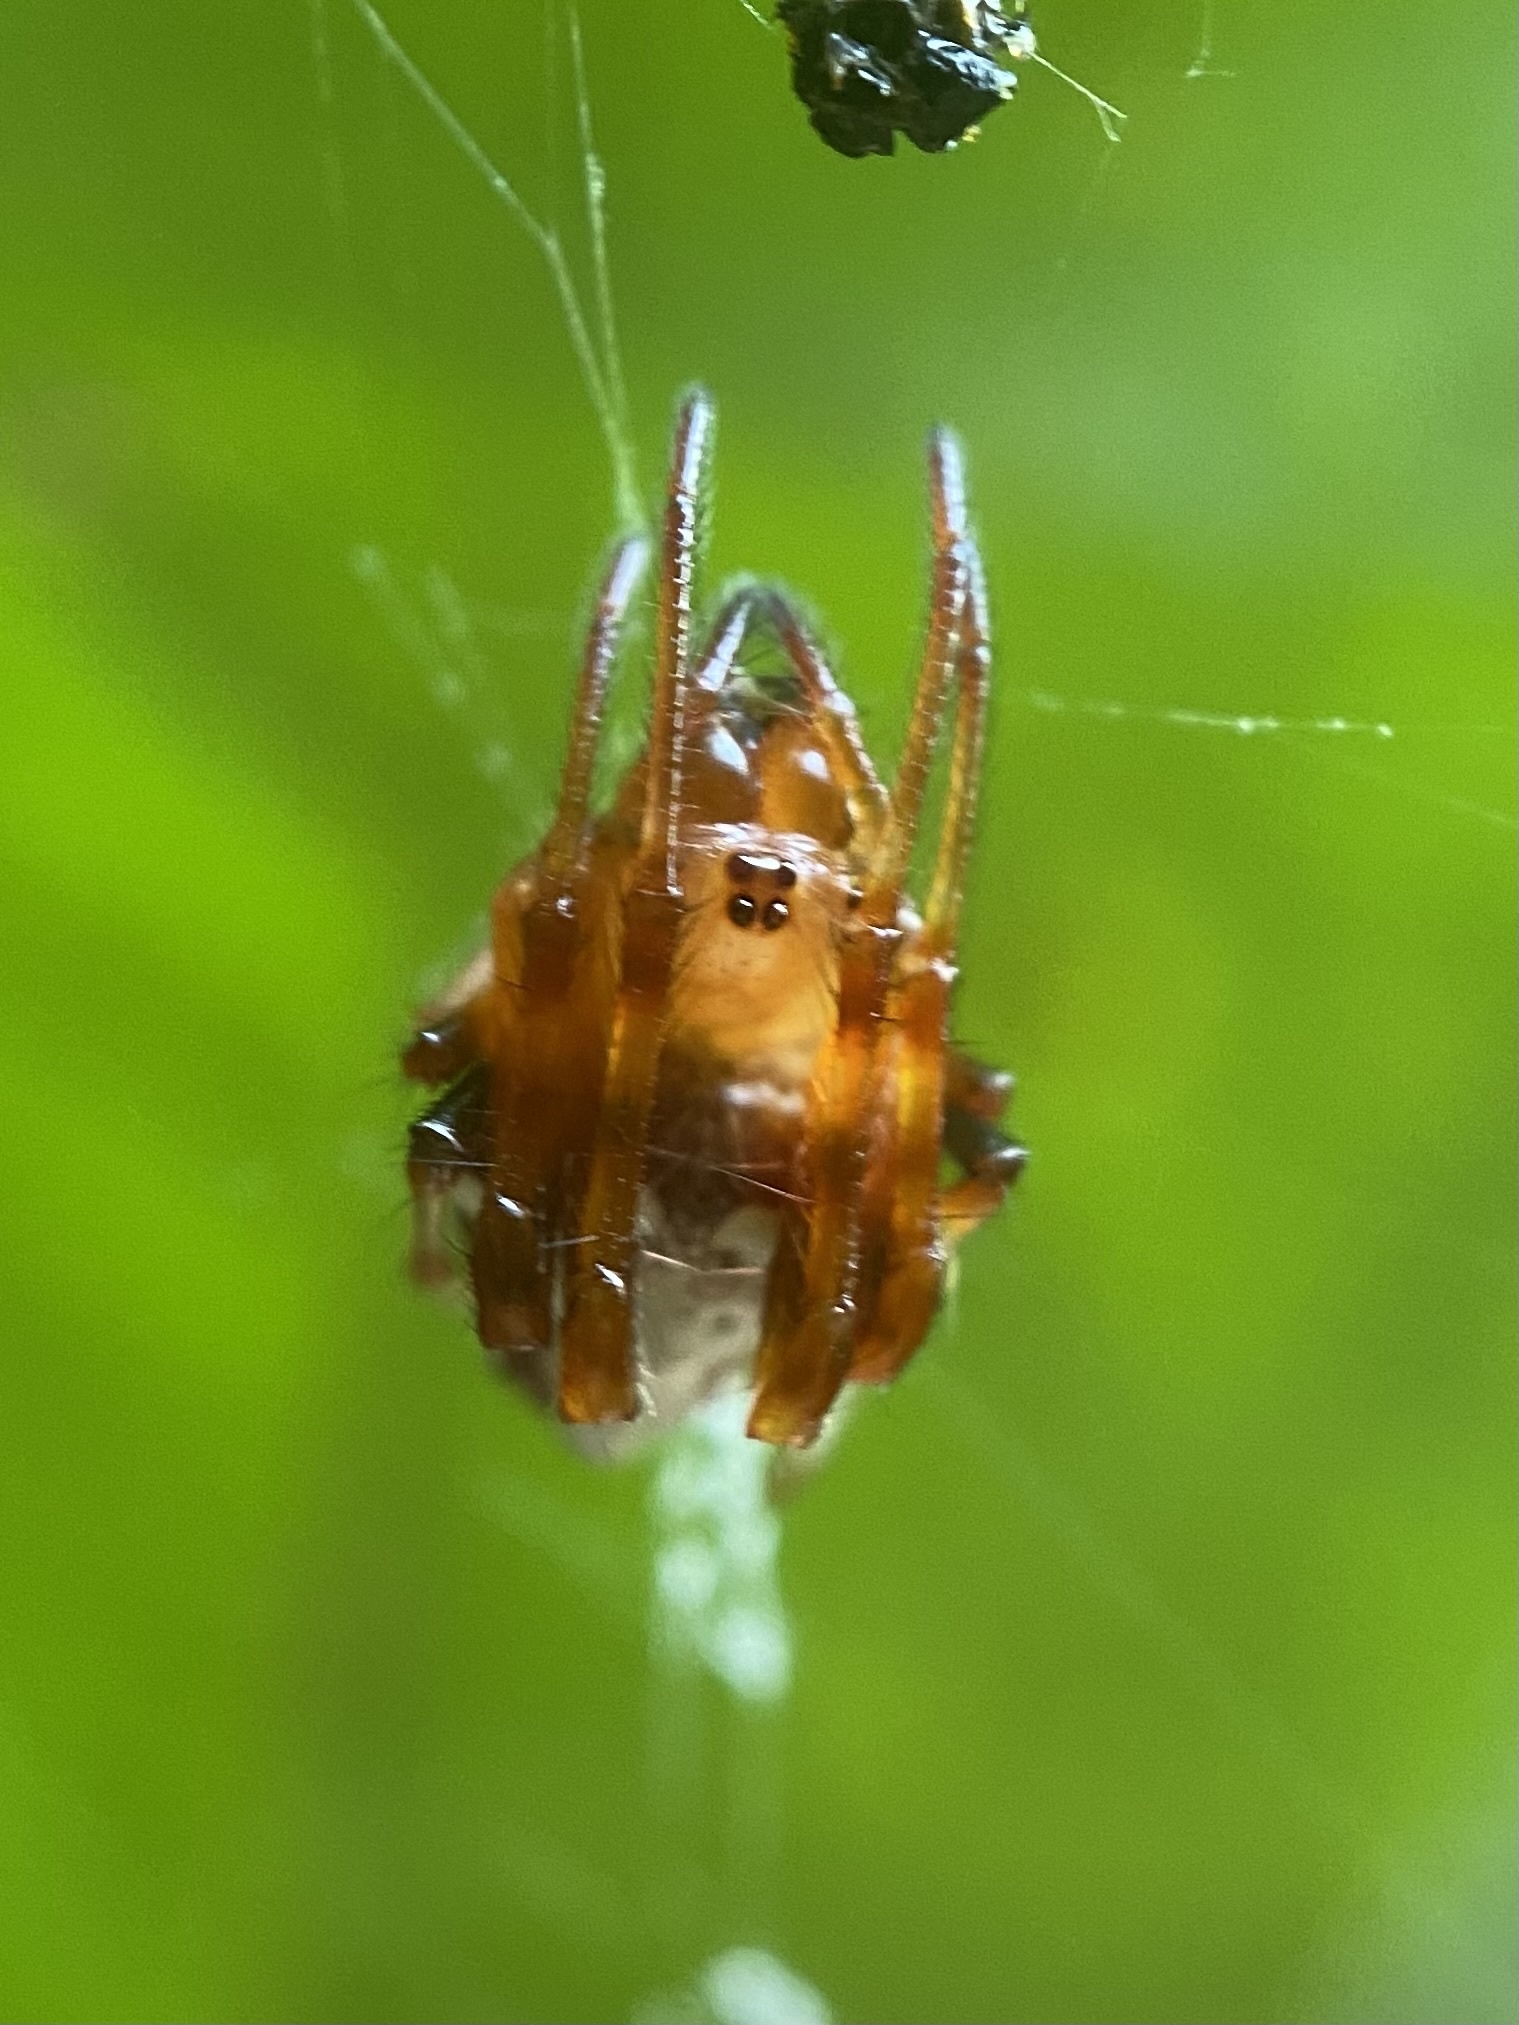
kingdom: Animalia
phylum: Arthropoda
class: Arachnida
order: Araneae
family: Araneidae
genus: Verrucosa
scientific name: Verrucosa arenata
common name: Orb weavers
